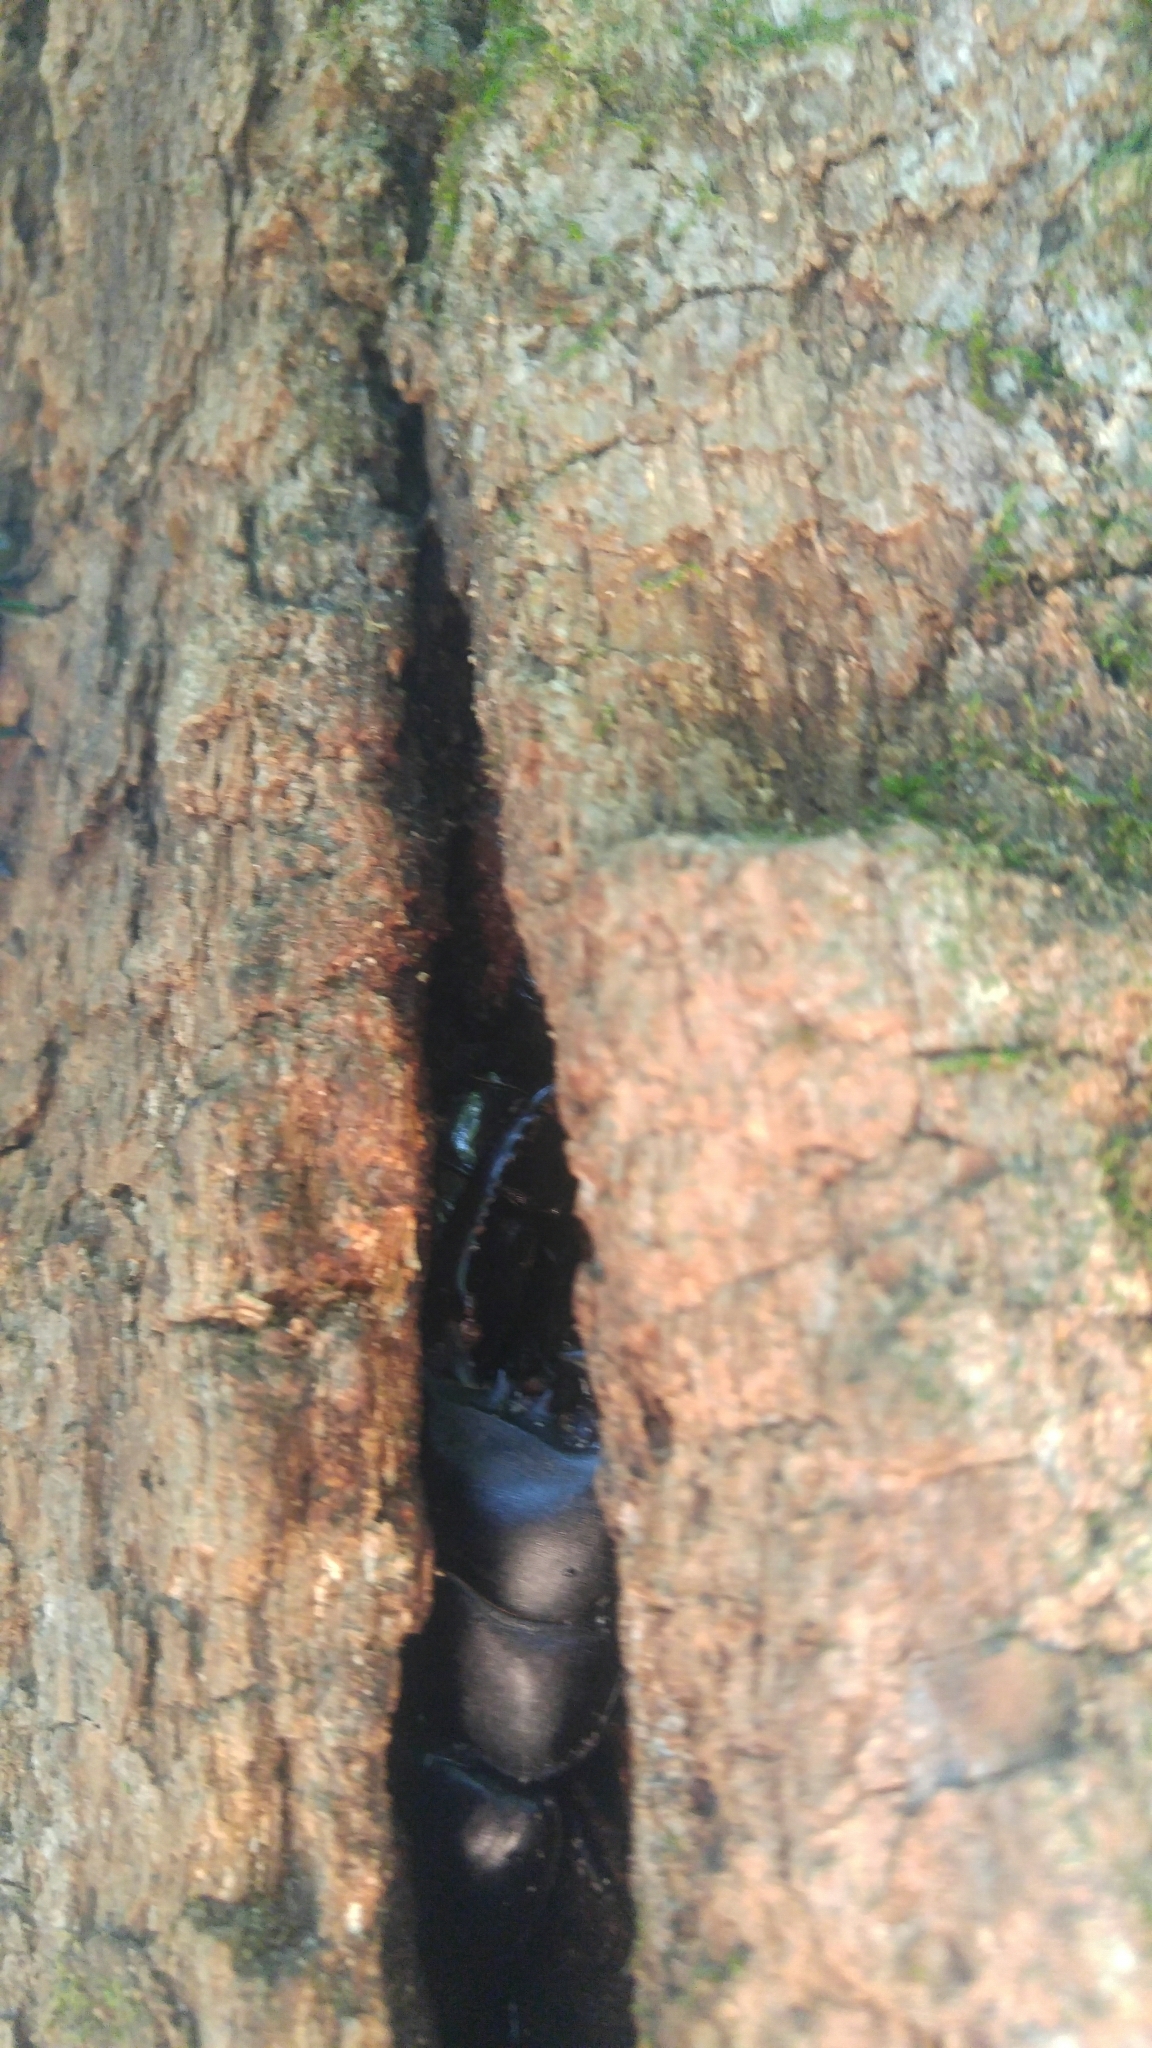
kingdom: Animalia
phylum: Arthropoda
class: Insecta
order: Coleoptera
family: Lucanidae
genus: Serrognathus
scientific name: Serrognathus titanus
